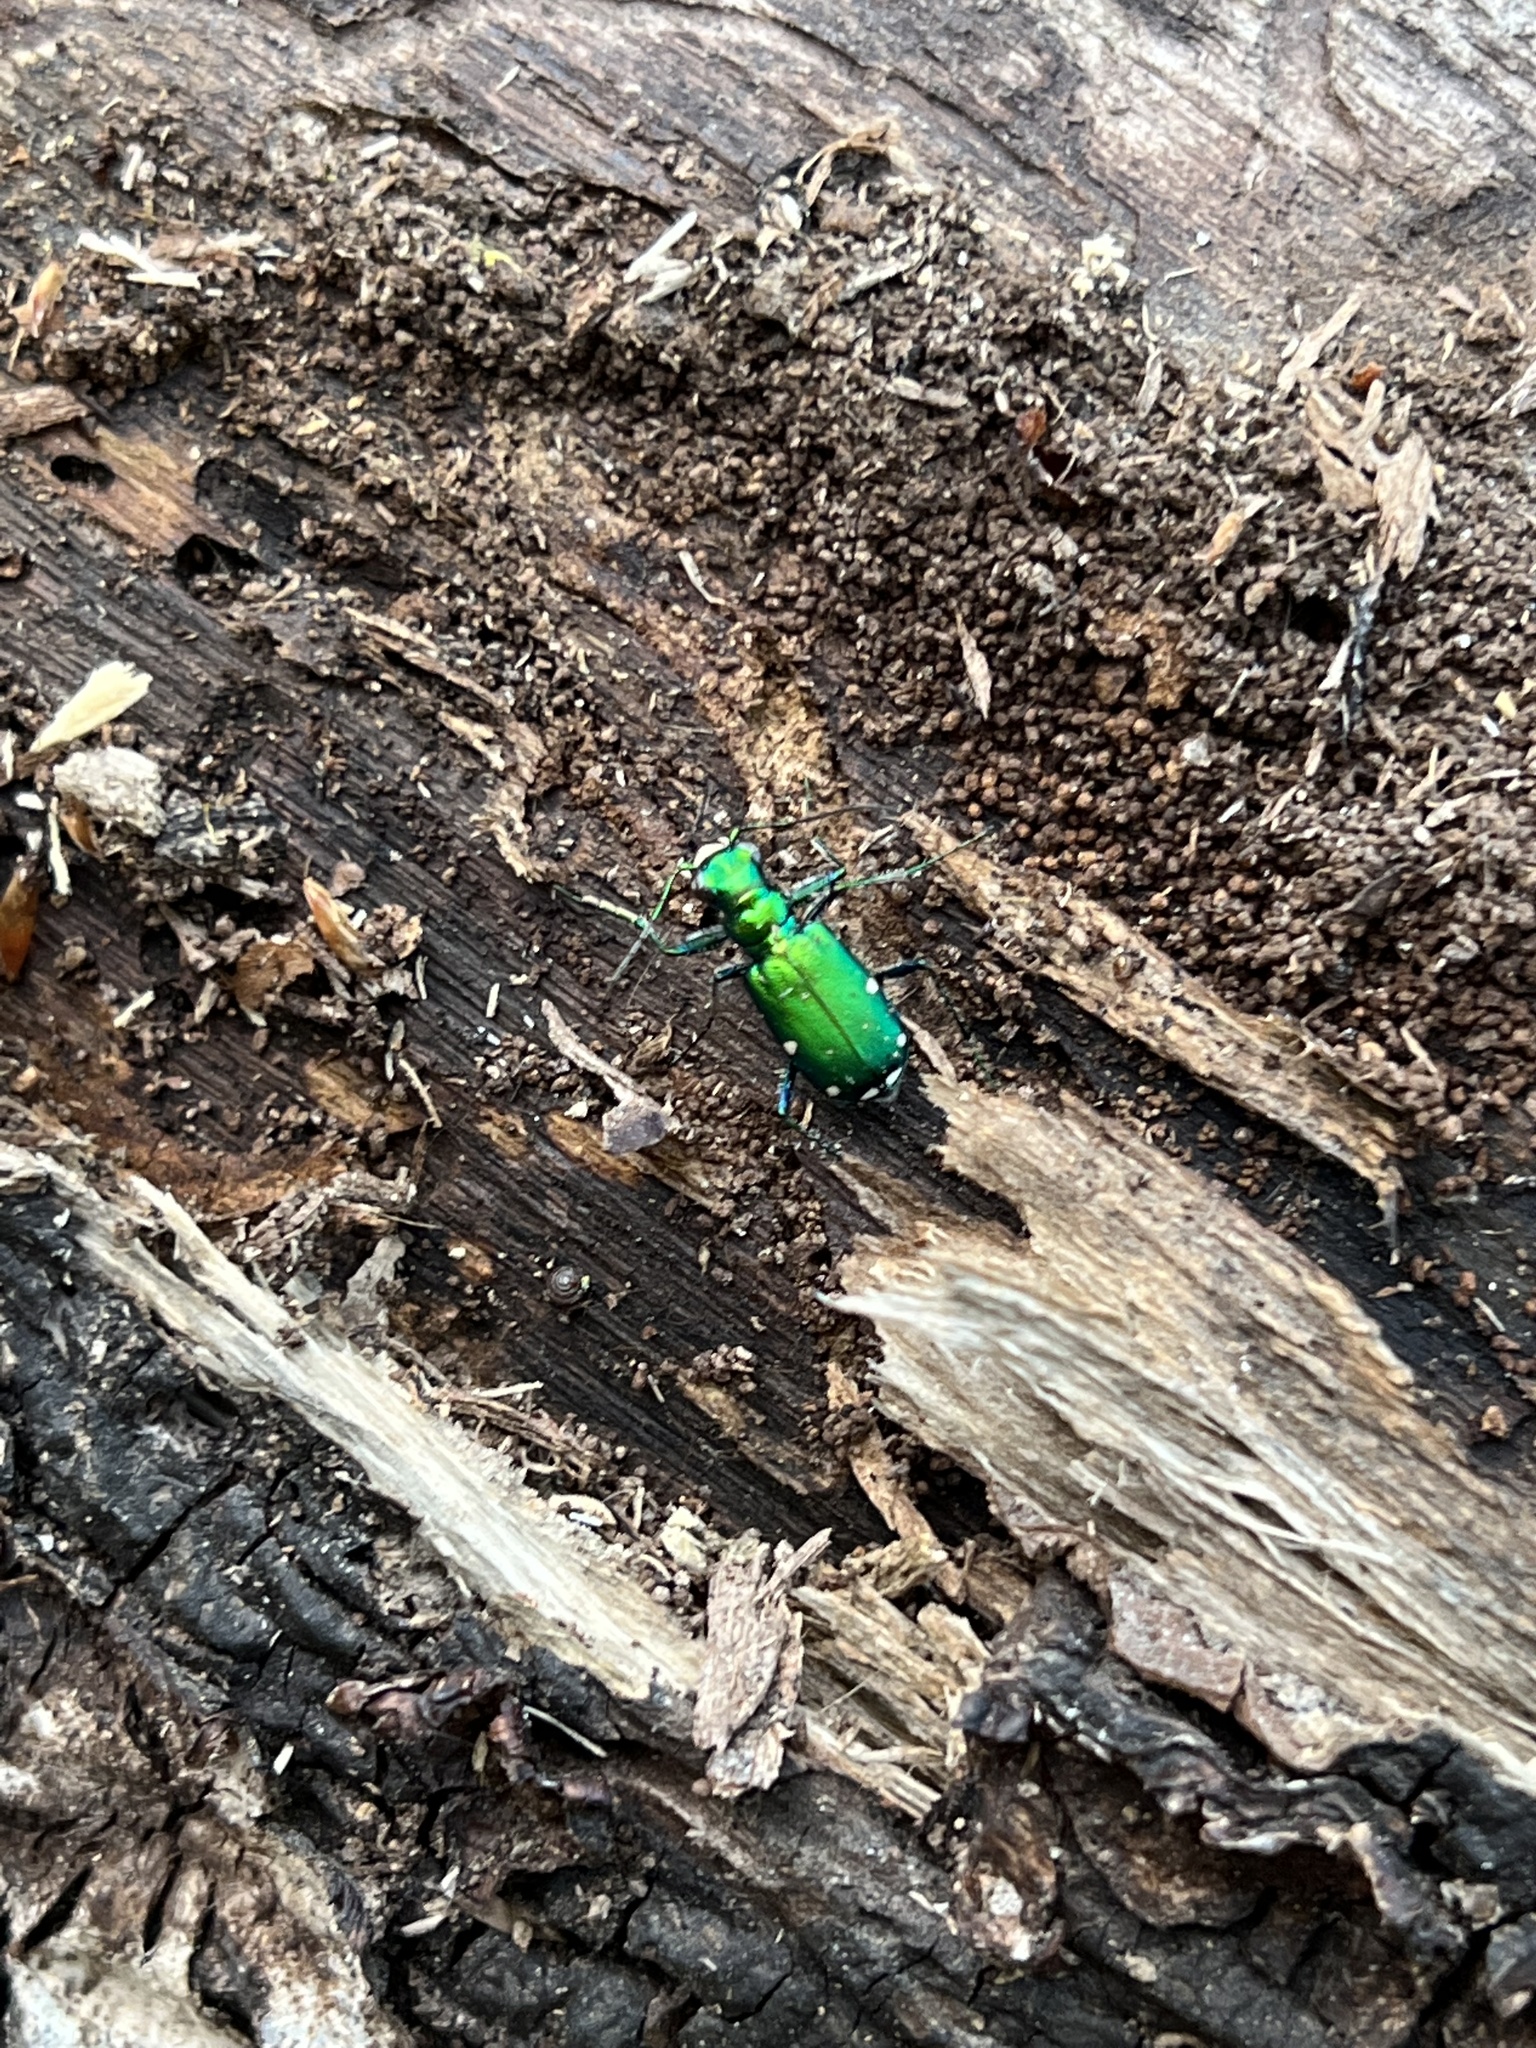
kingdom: Animalia
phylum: Arthropoda
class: Insecta
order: Coleoptera
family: Carabidae
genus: Cicindela
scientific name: Cicindela sexguttata
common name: Six-spotted tiger beetle
